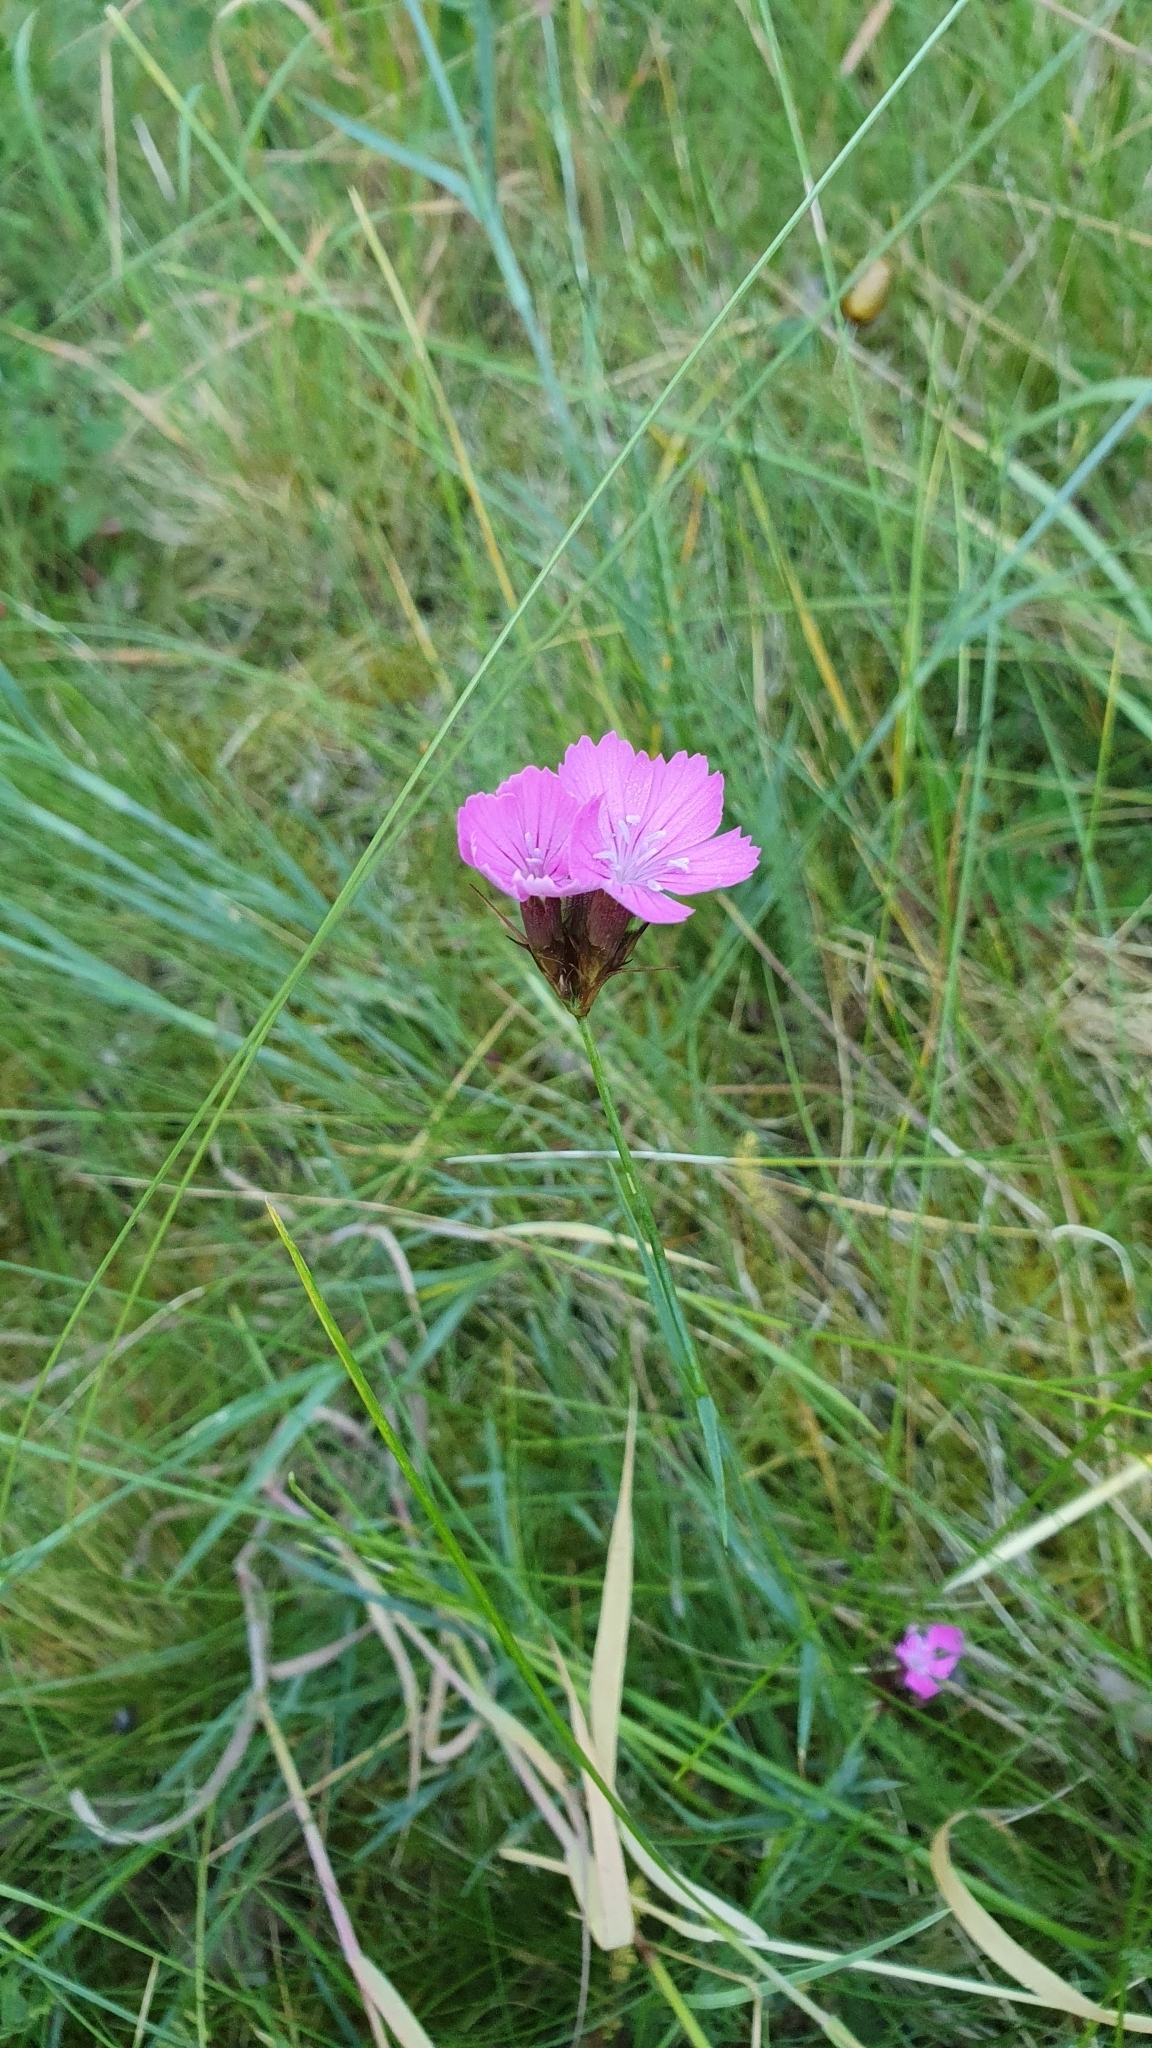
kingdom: Plantae
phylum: Tracheophyta
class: Magnoliopsida
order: Caryophyllales
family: Caryophyllaceae
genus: Dianthus
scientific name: Dianthus carthusianorum
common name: Carthusian pink
